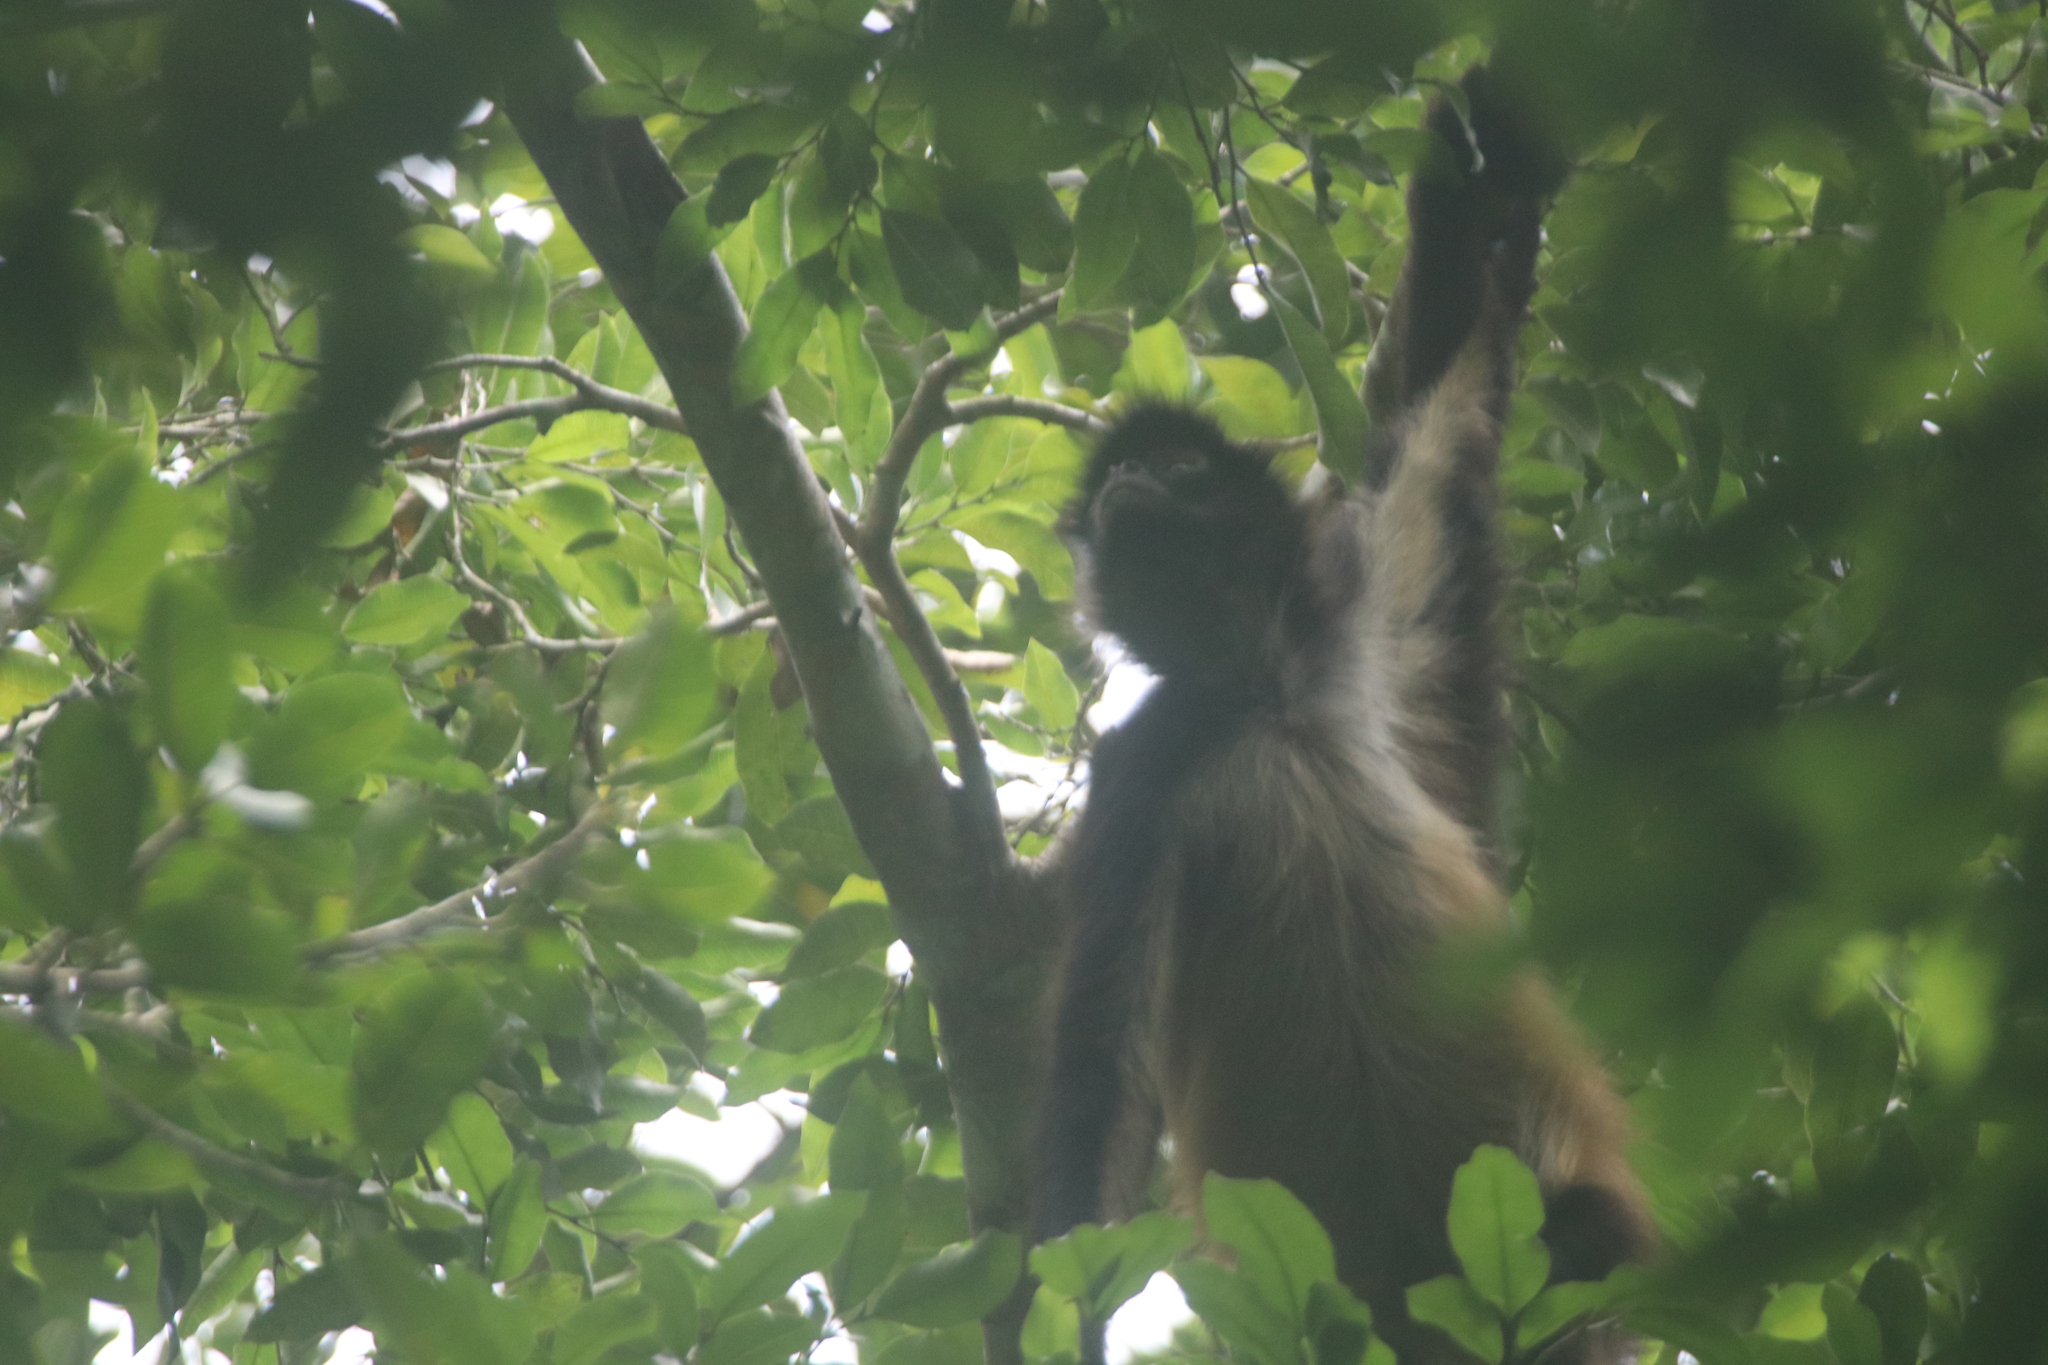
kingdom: Animalia
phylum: Chordata
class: Mammalia
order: Primates
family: Atelidae
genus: Ateles
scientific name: Ateles geoffroyi
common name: Black-handed spider monkey
